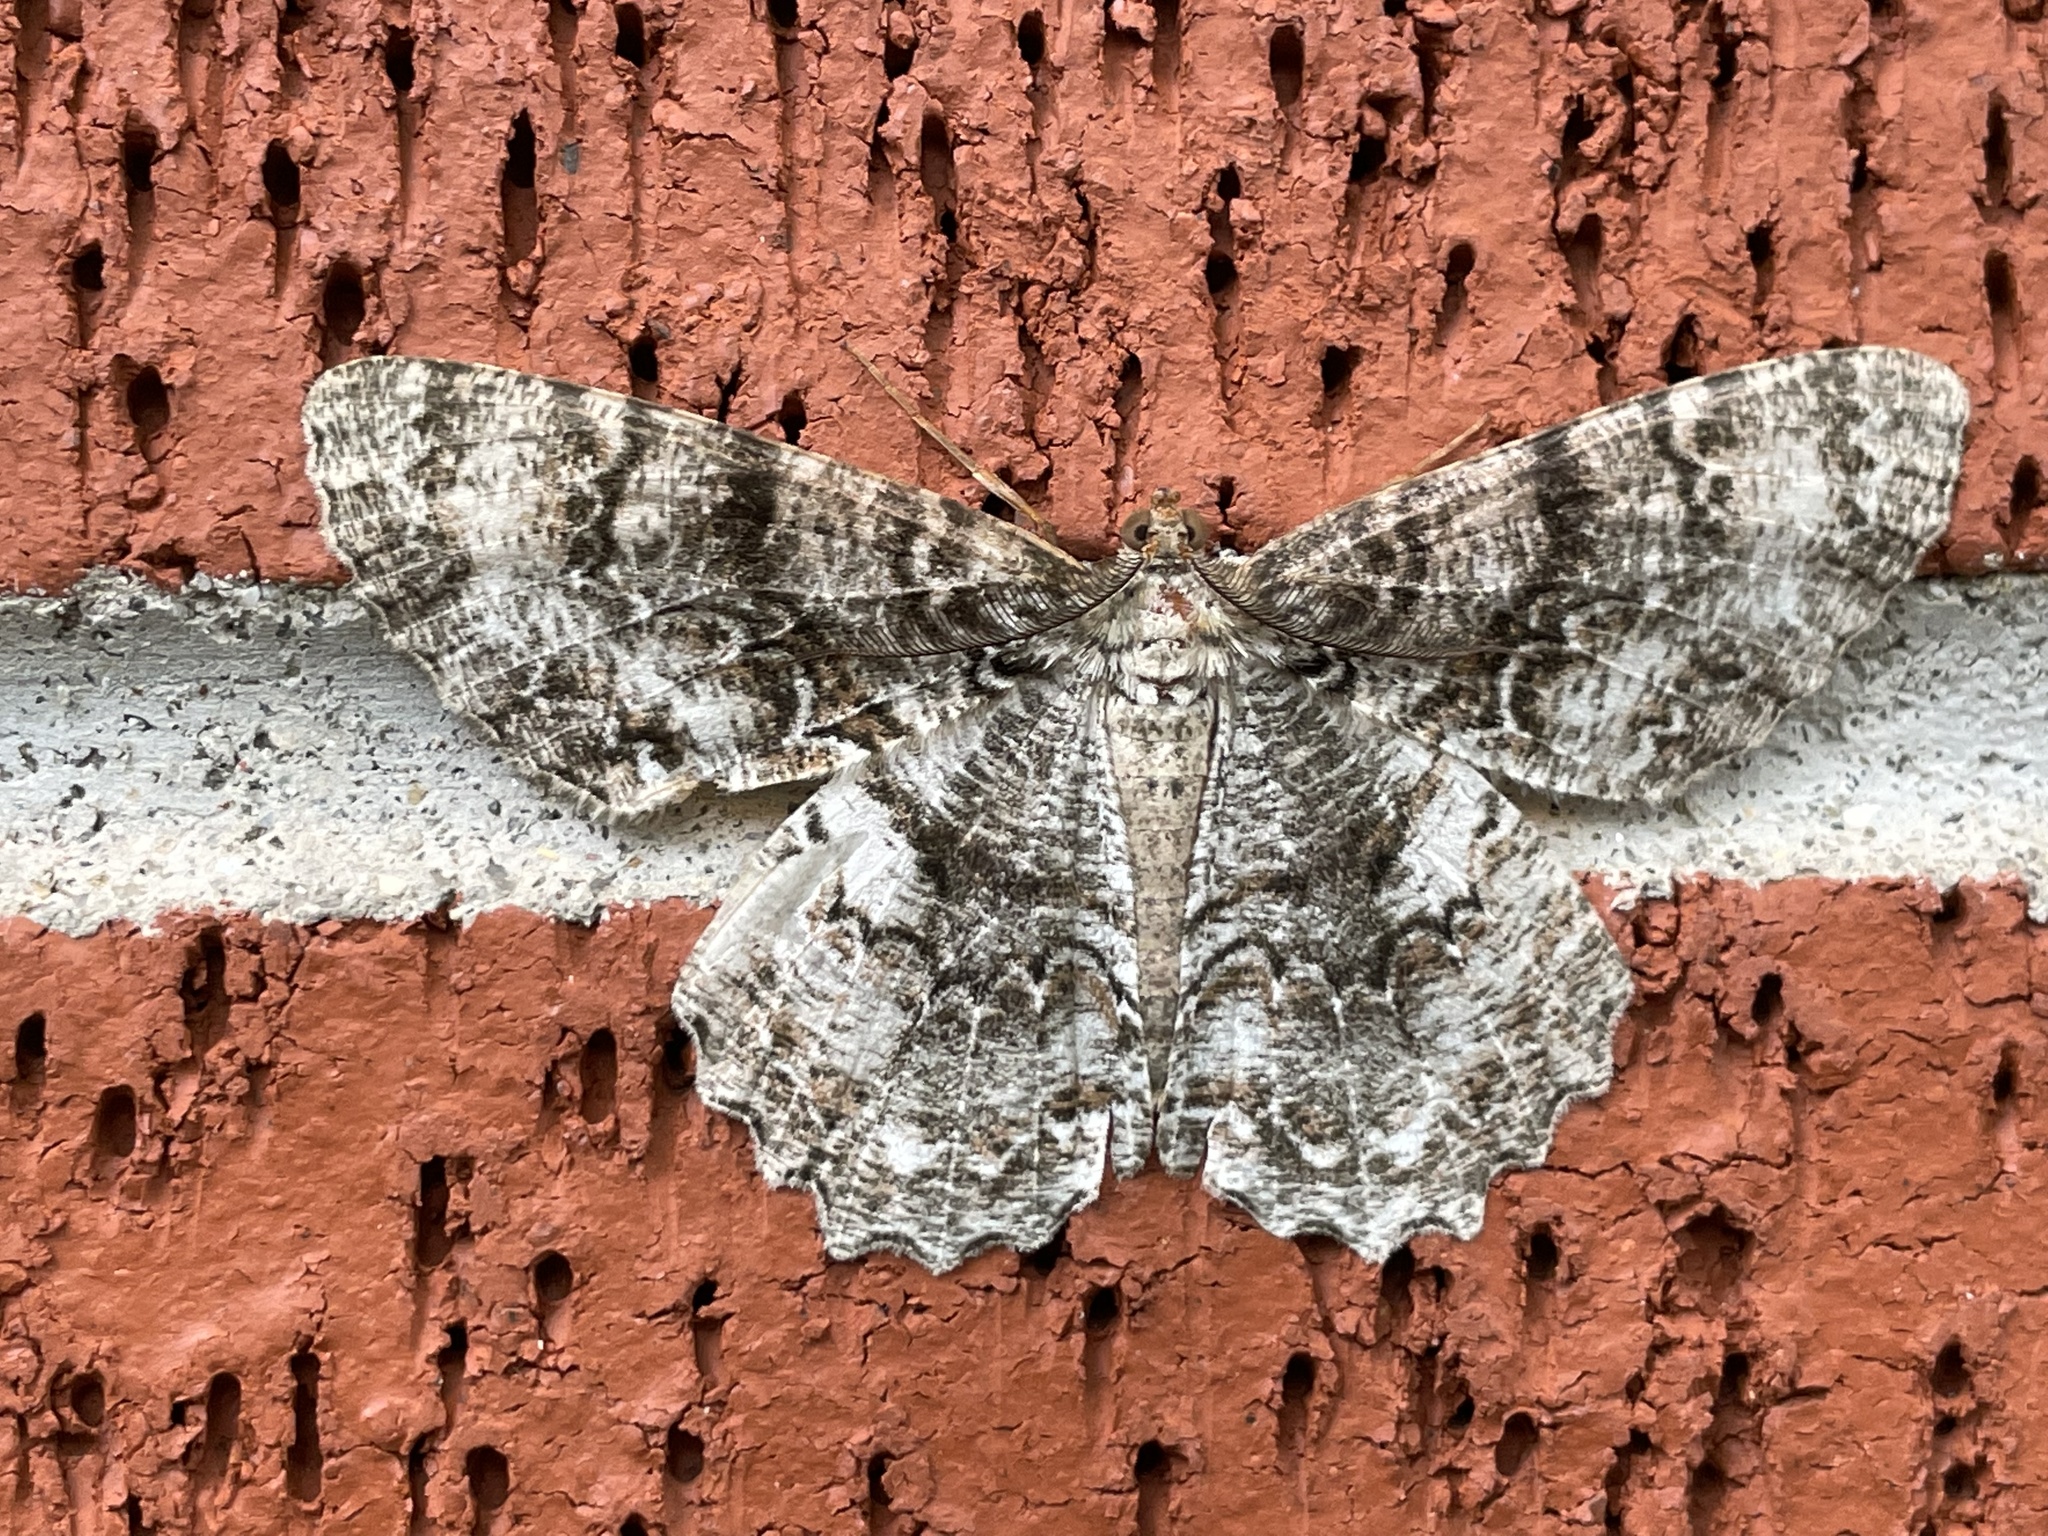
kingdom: Animalia
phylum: Arthropoda
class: Insecta
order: Lepidoptera
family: Geometridae
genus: Epimecis
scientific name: Epimecis hortaria
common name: Tulip-tree beauty
